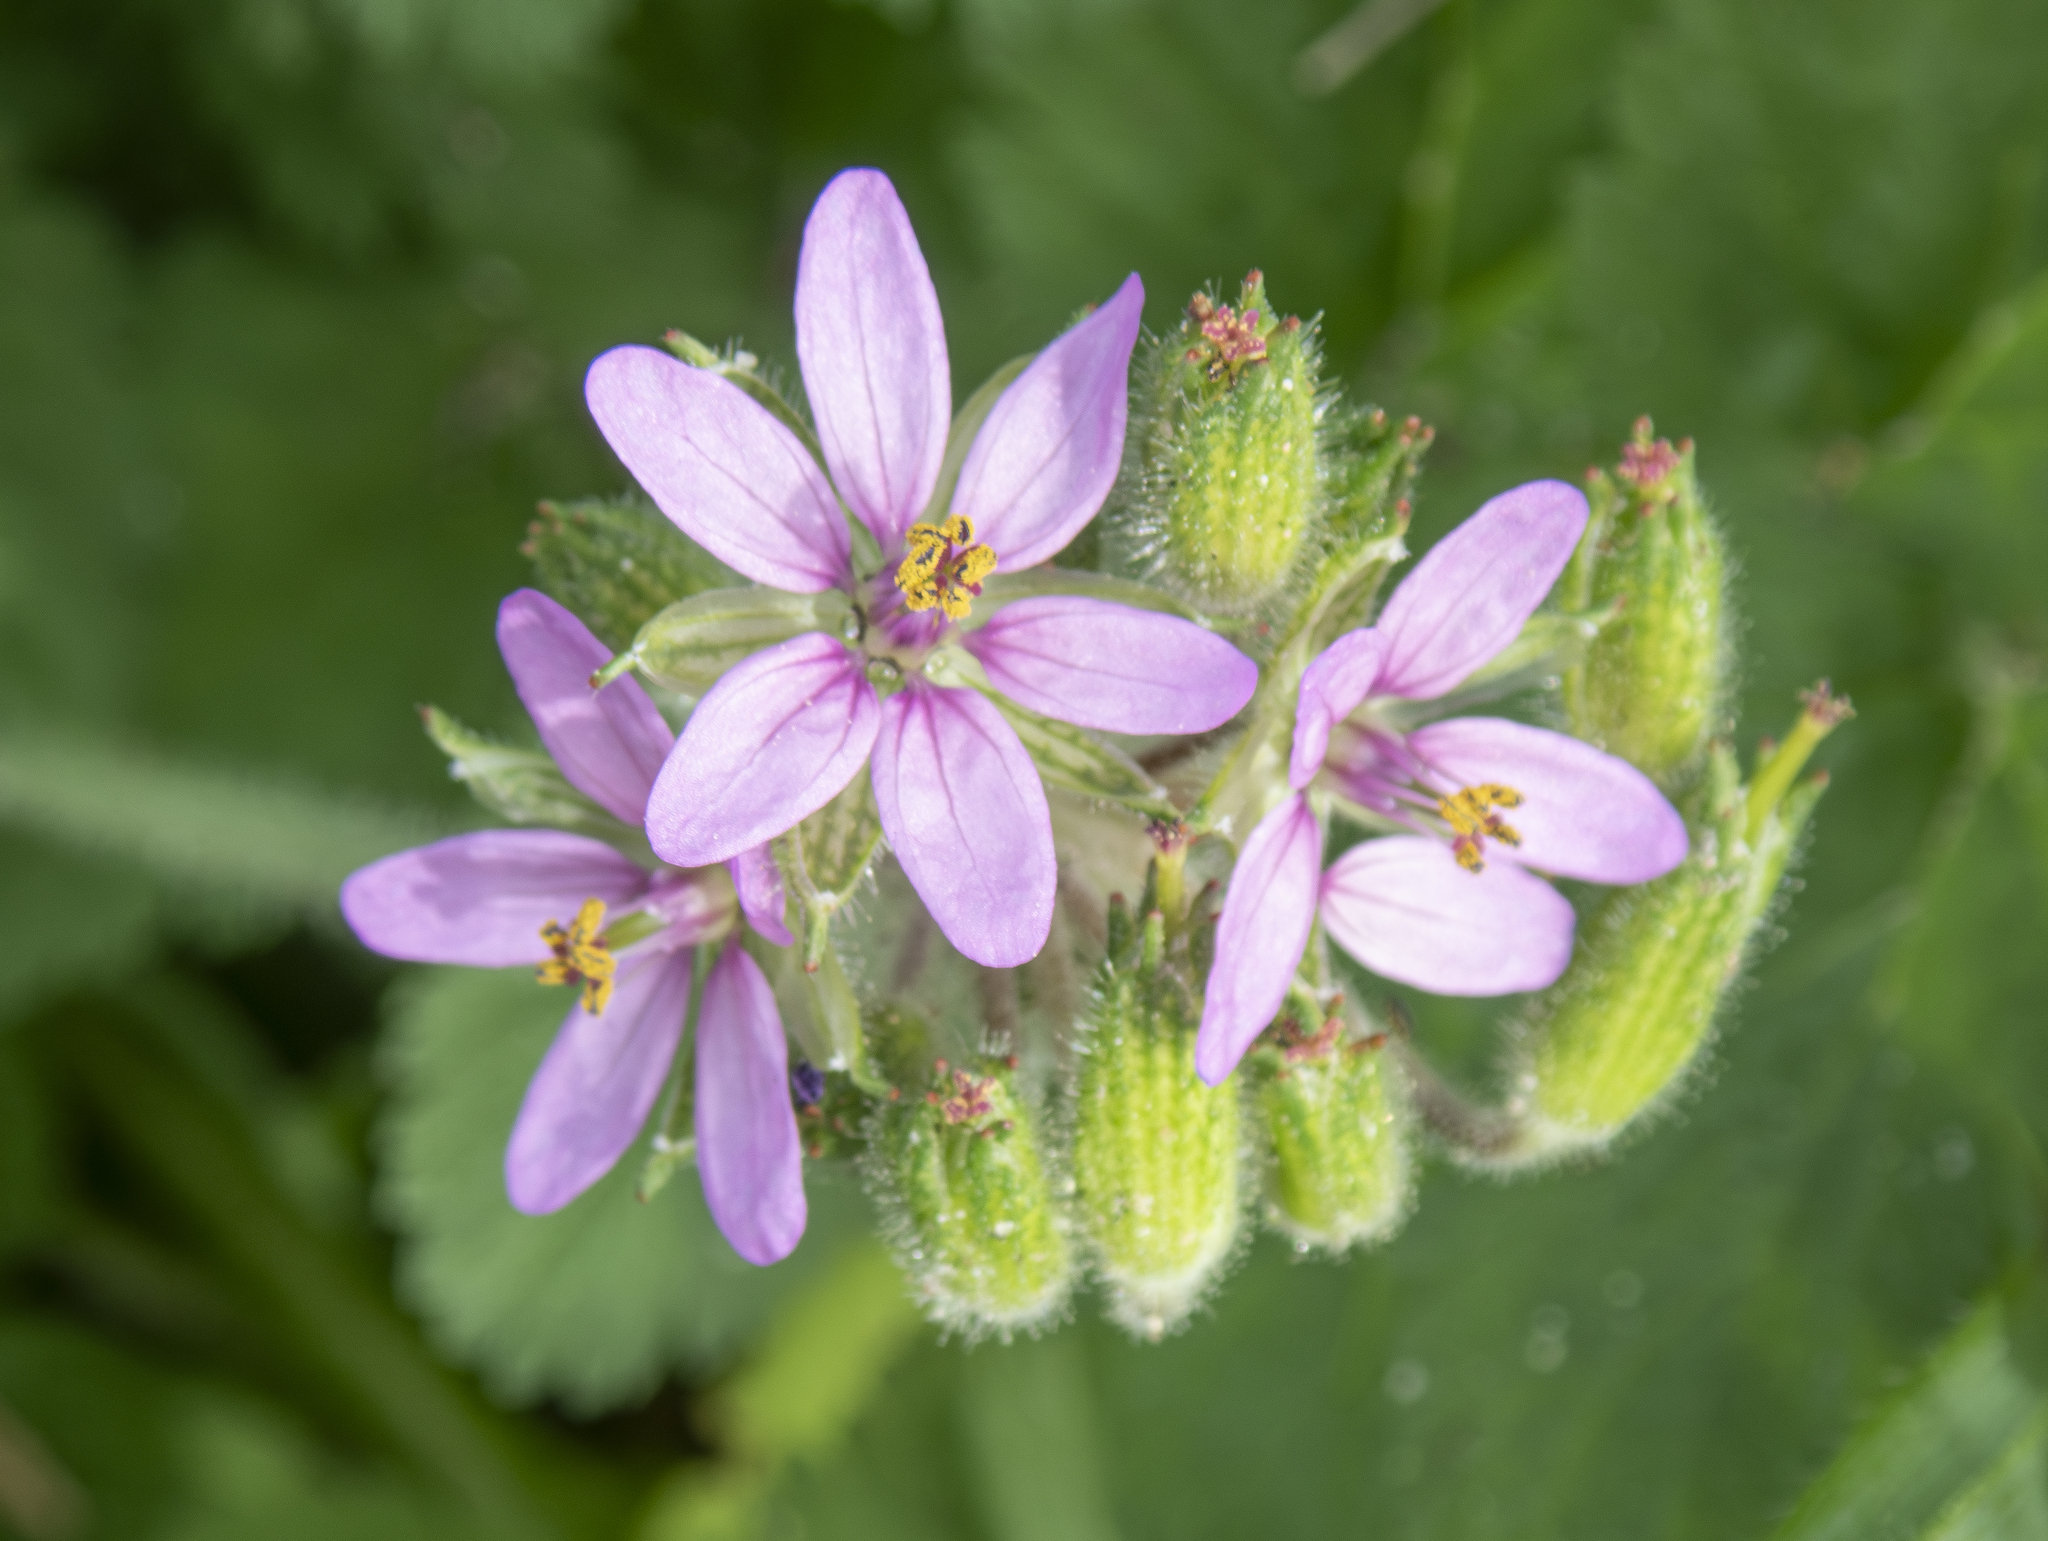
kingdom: Plantae
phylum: Tracheophyta
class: Magnoliopsida
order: Geraniales
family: Geraniaceae
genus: Erodium
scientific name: Erodium moschatum
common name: Musk stork's-bill
